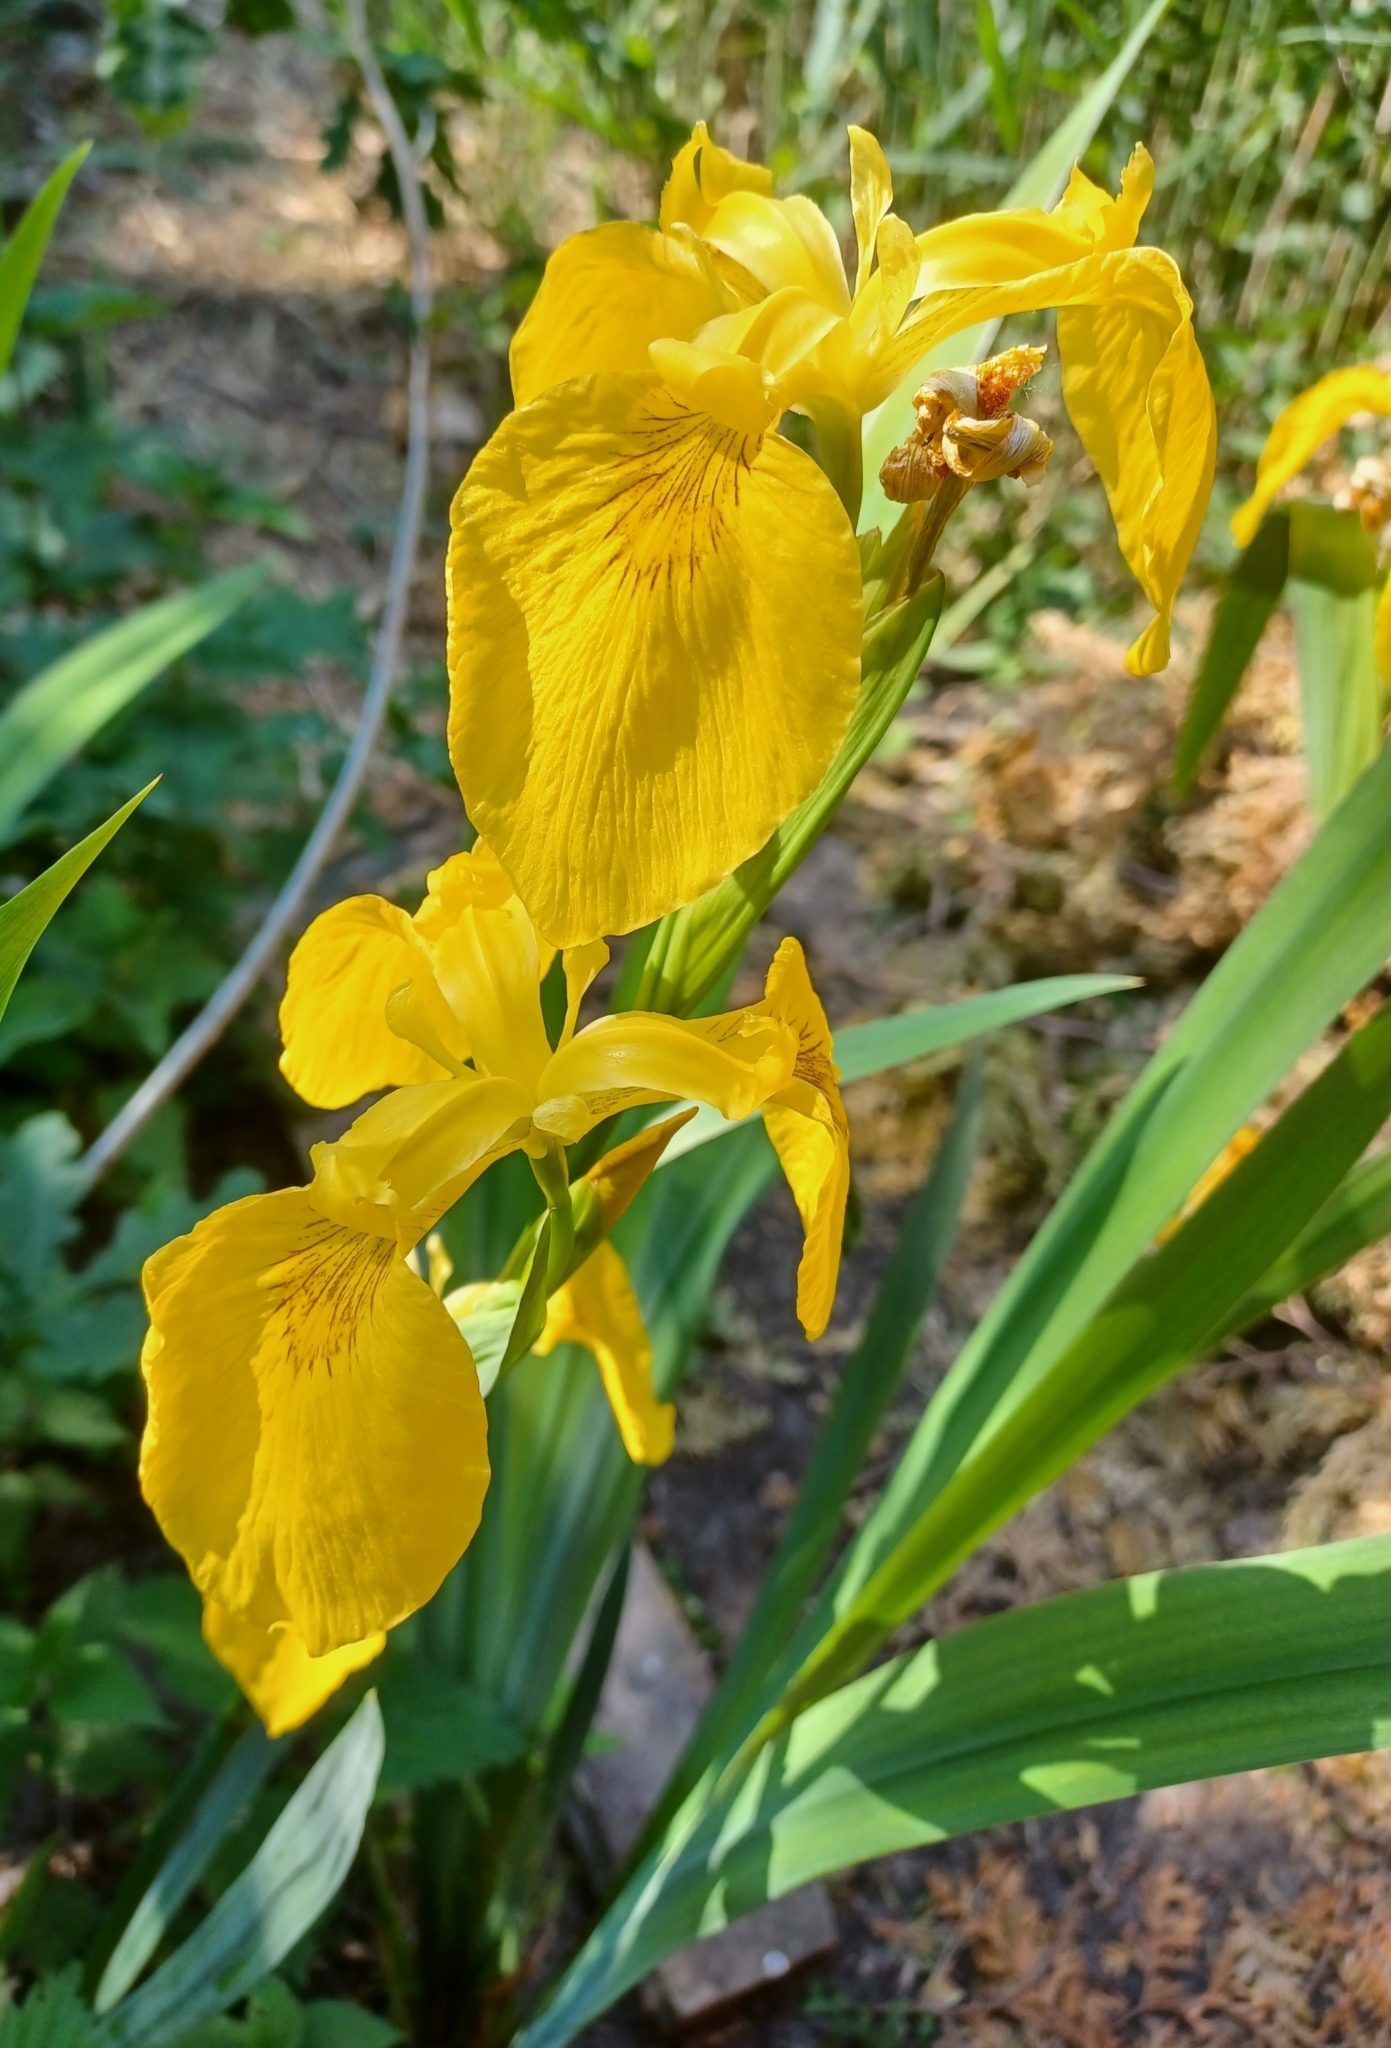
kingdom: Plantae
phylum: Tracheophyta
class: Liliopsida
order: Asparagales
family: Iridaceae
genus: Iris
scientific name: Iris pseudacorus
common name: Yellow flag
